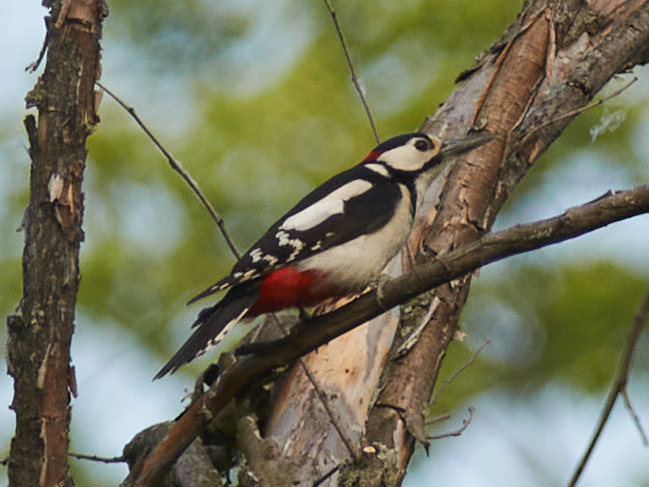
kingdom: Animalia
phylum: Chordata
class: Aves
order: Piciformes
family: Picidae
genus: Dendrocopos
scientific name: Dendrocopos major
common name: Great spotted woodpecker
